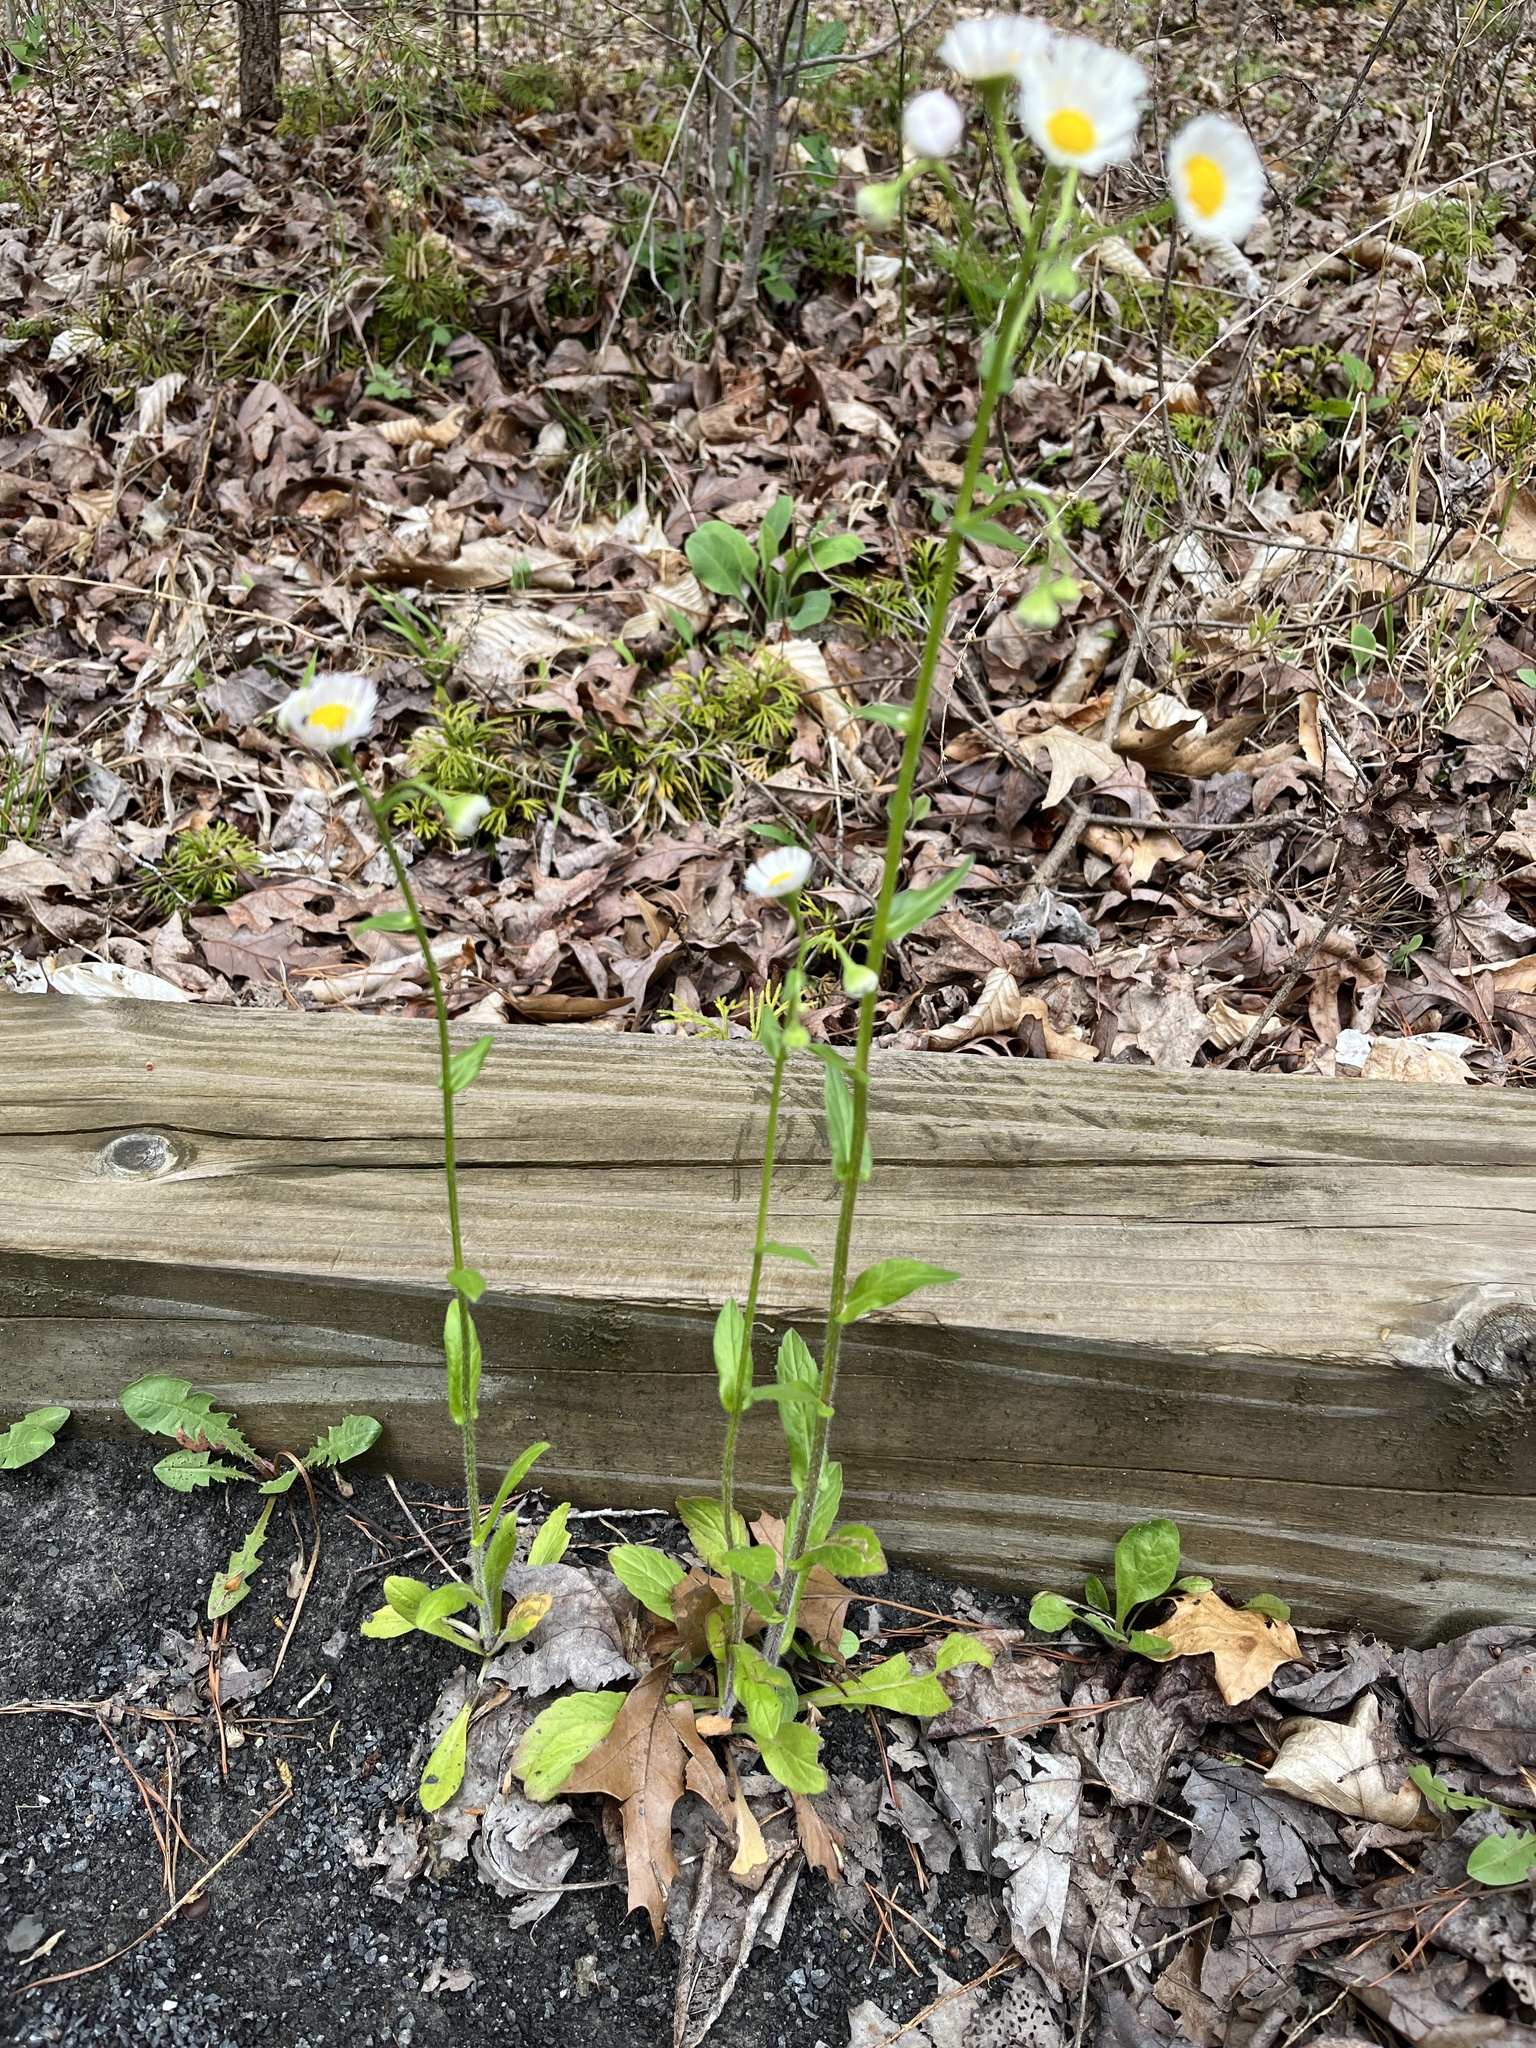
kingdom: Plantae
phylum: Tracheophyta
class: Magnoliopsida
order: Asterales
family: Asteraceae
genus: Erigeron
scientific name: Erigeron philadelphicus
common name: Robin's-plantain
